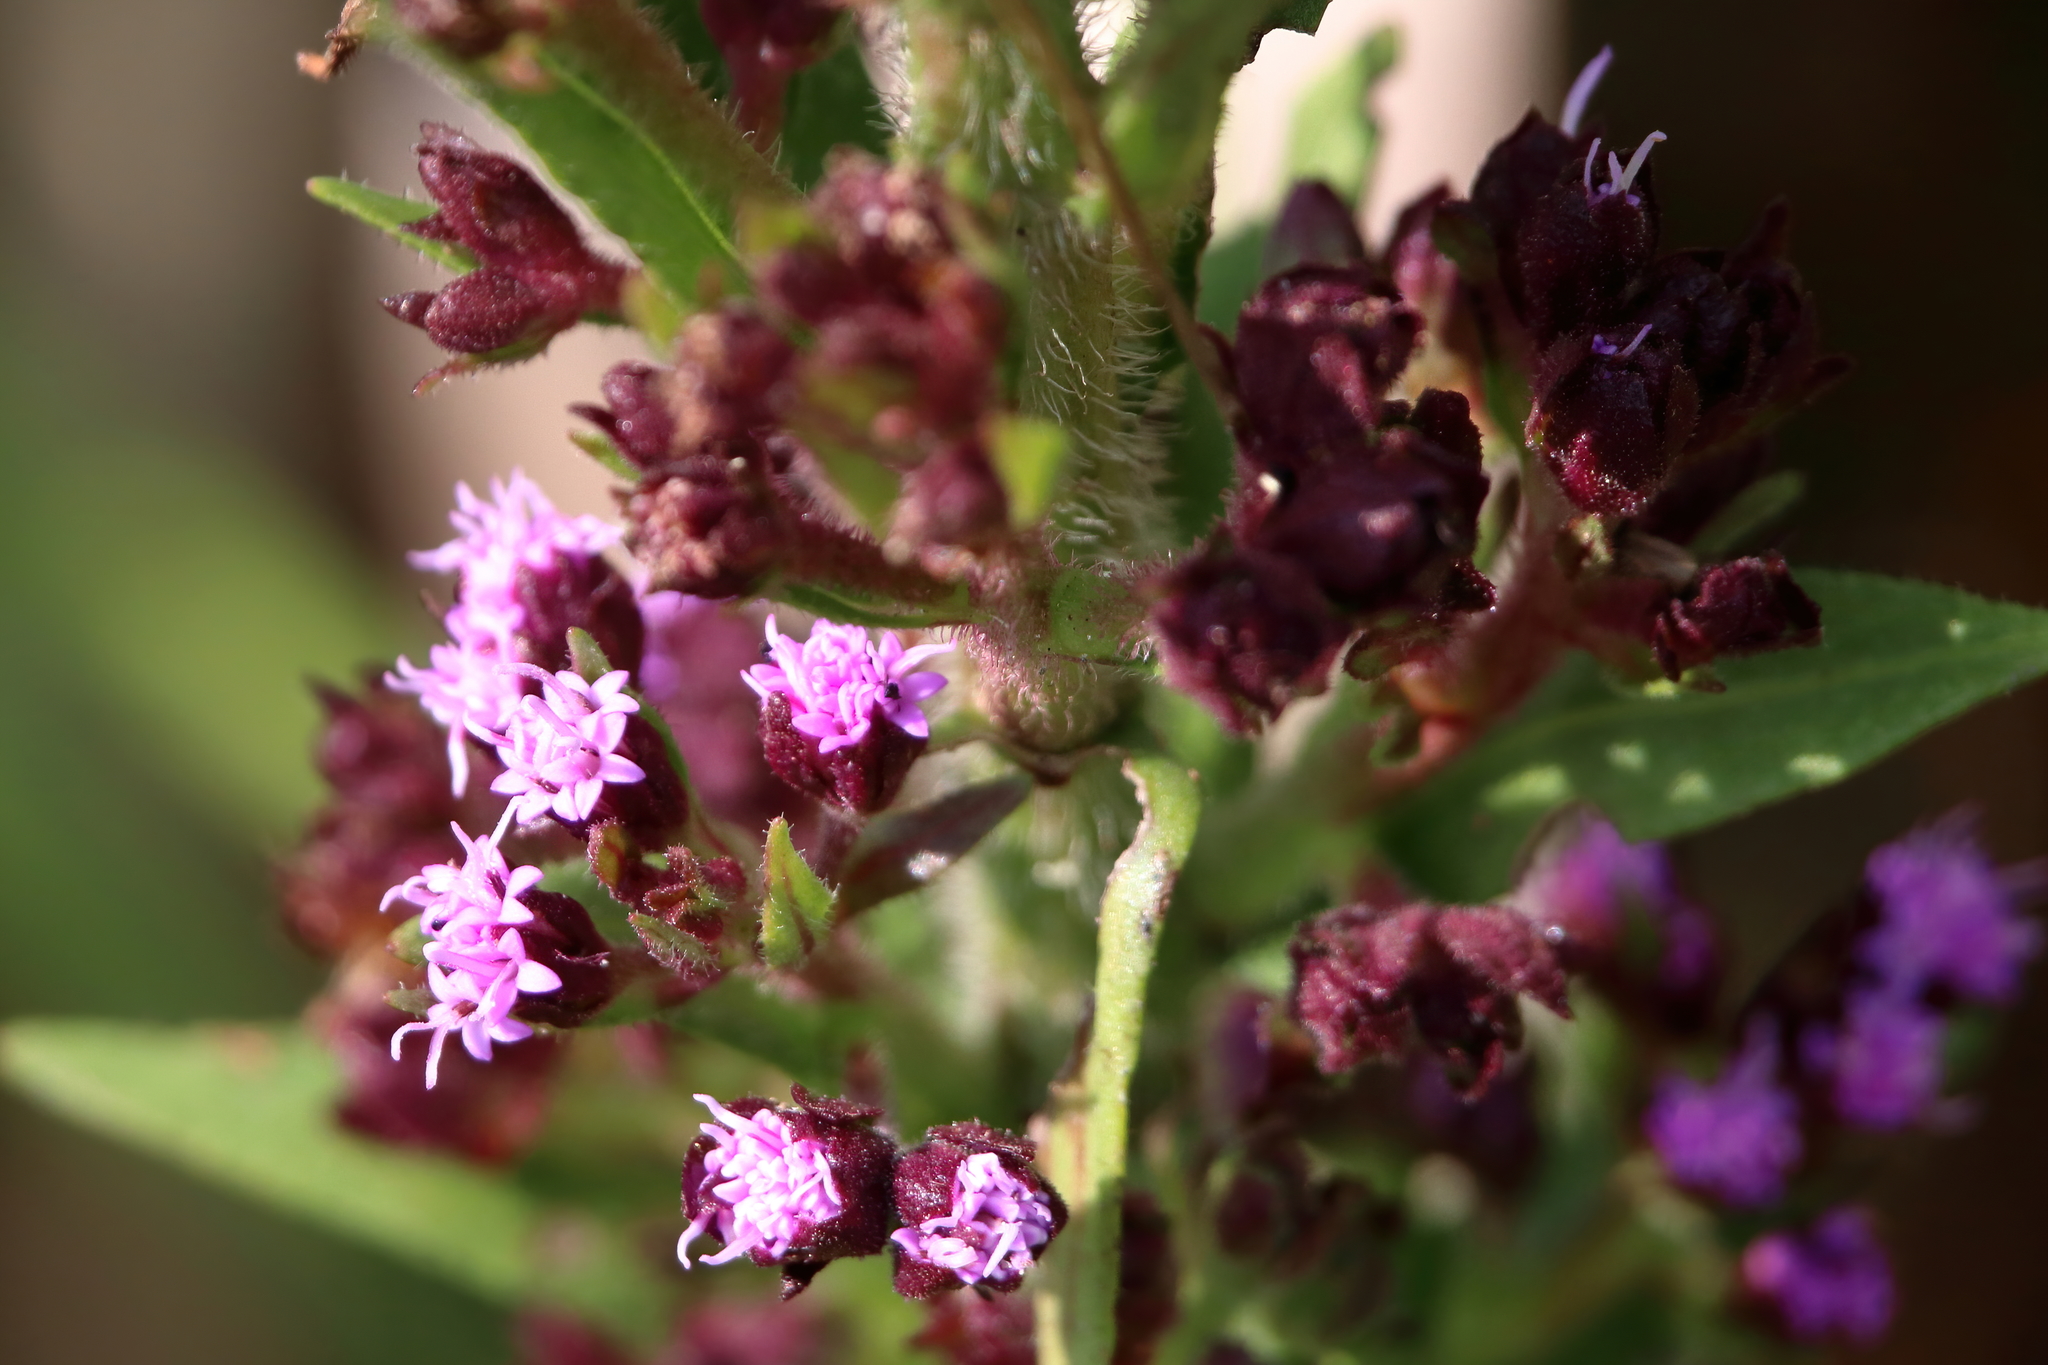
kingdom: Plantae
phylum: Tracheophyta
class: Magnoliopsida
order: Asterales
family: Asteraceae
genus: Carphephorus
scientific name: Carphephorus paniculatus
